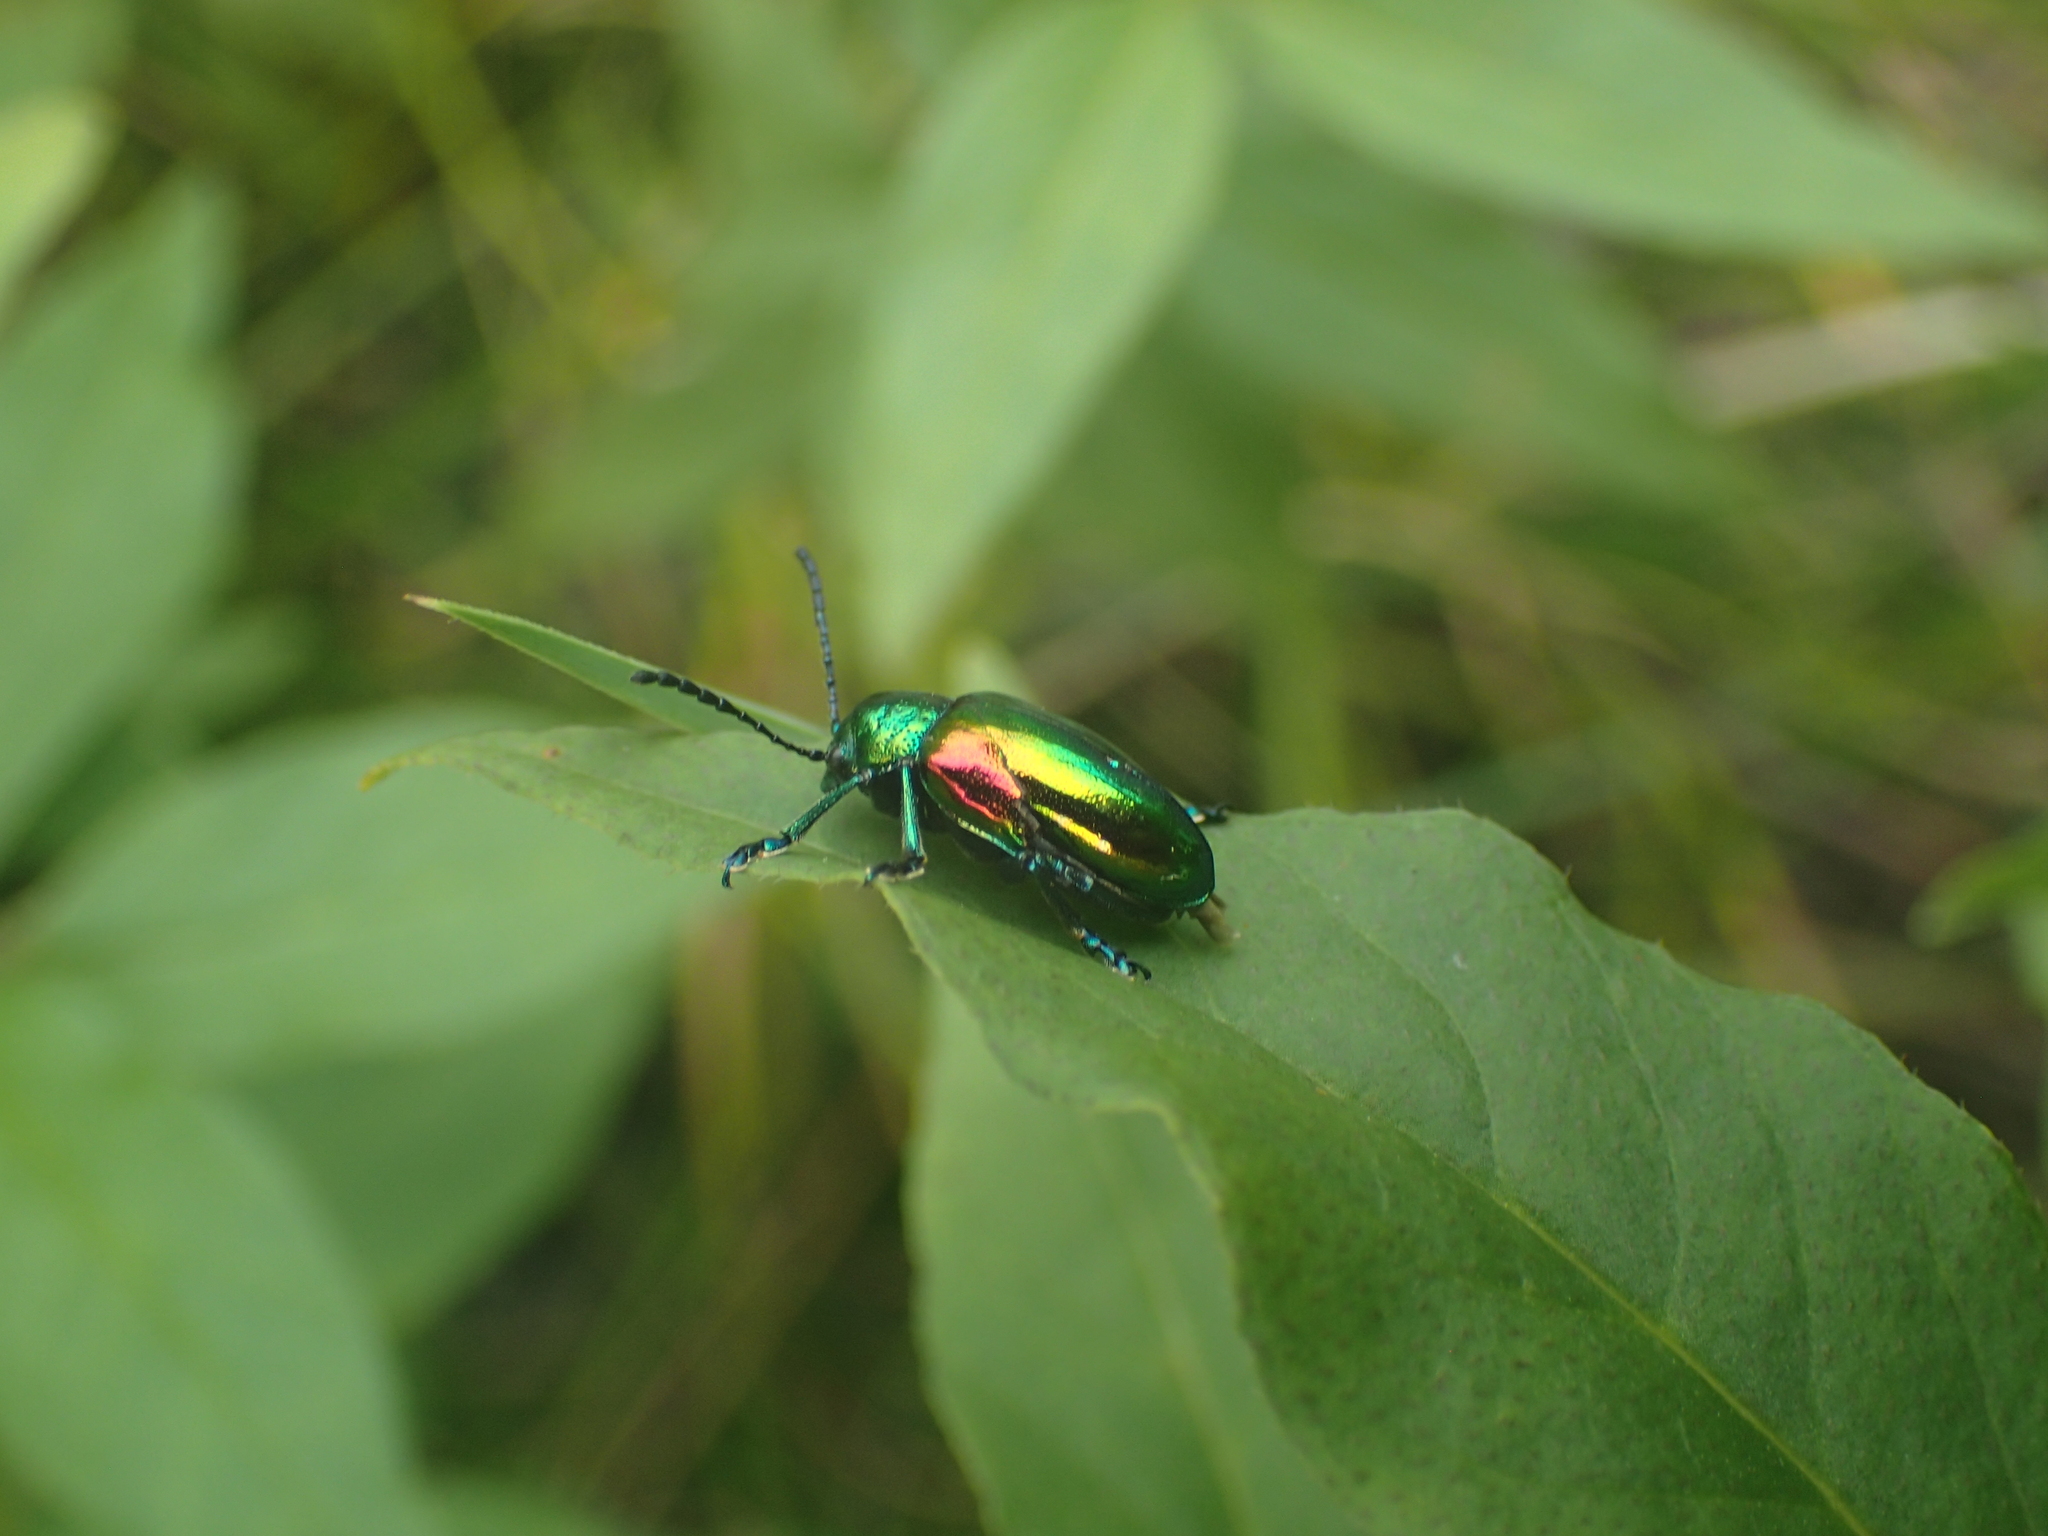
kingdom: Animalia
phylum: Arthropoda
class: Insecta
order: Coleoptera
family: Chrysomelidae
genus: Chrysochus
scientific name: Chrysochus auratus
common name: Dogbane leaf beetle
